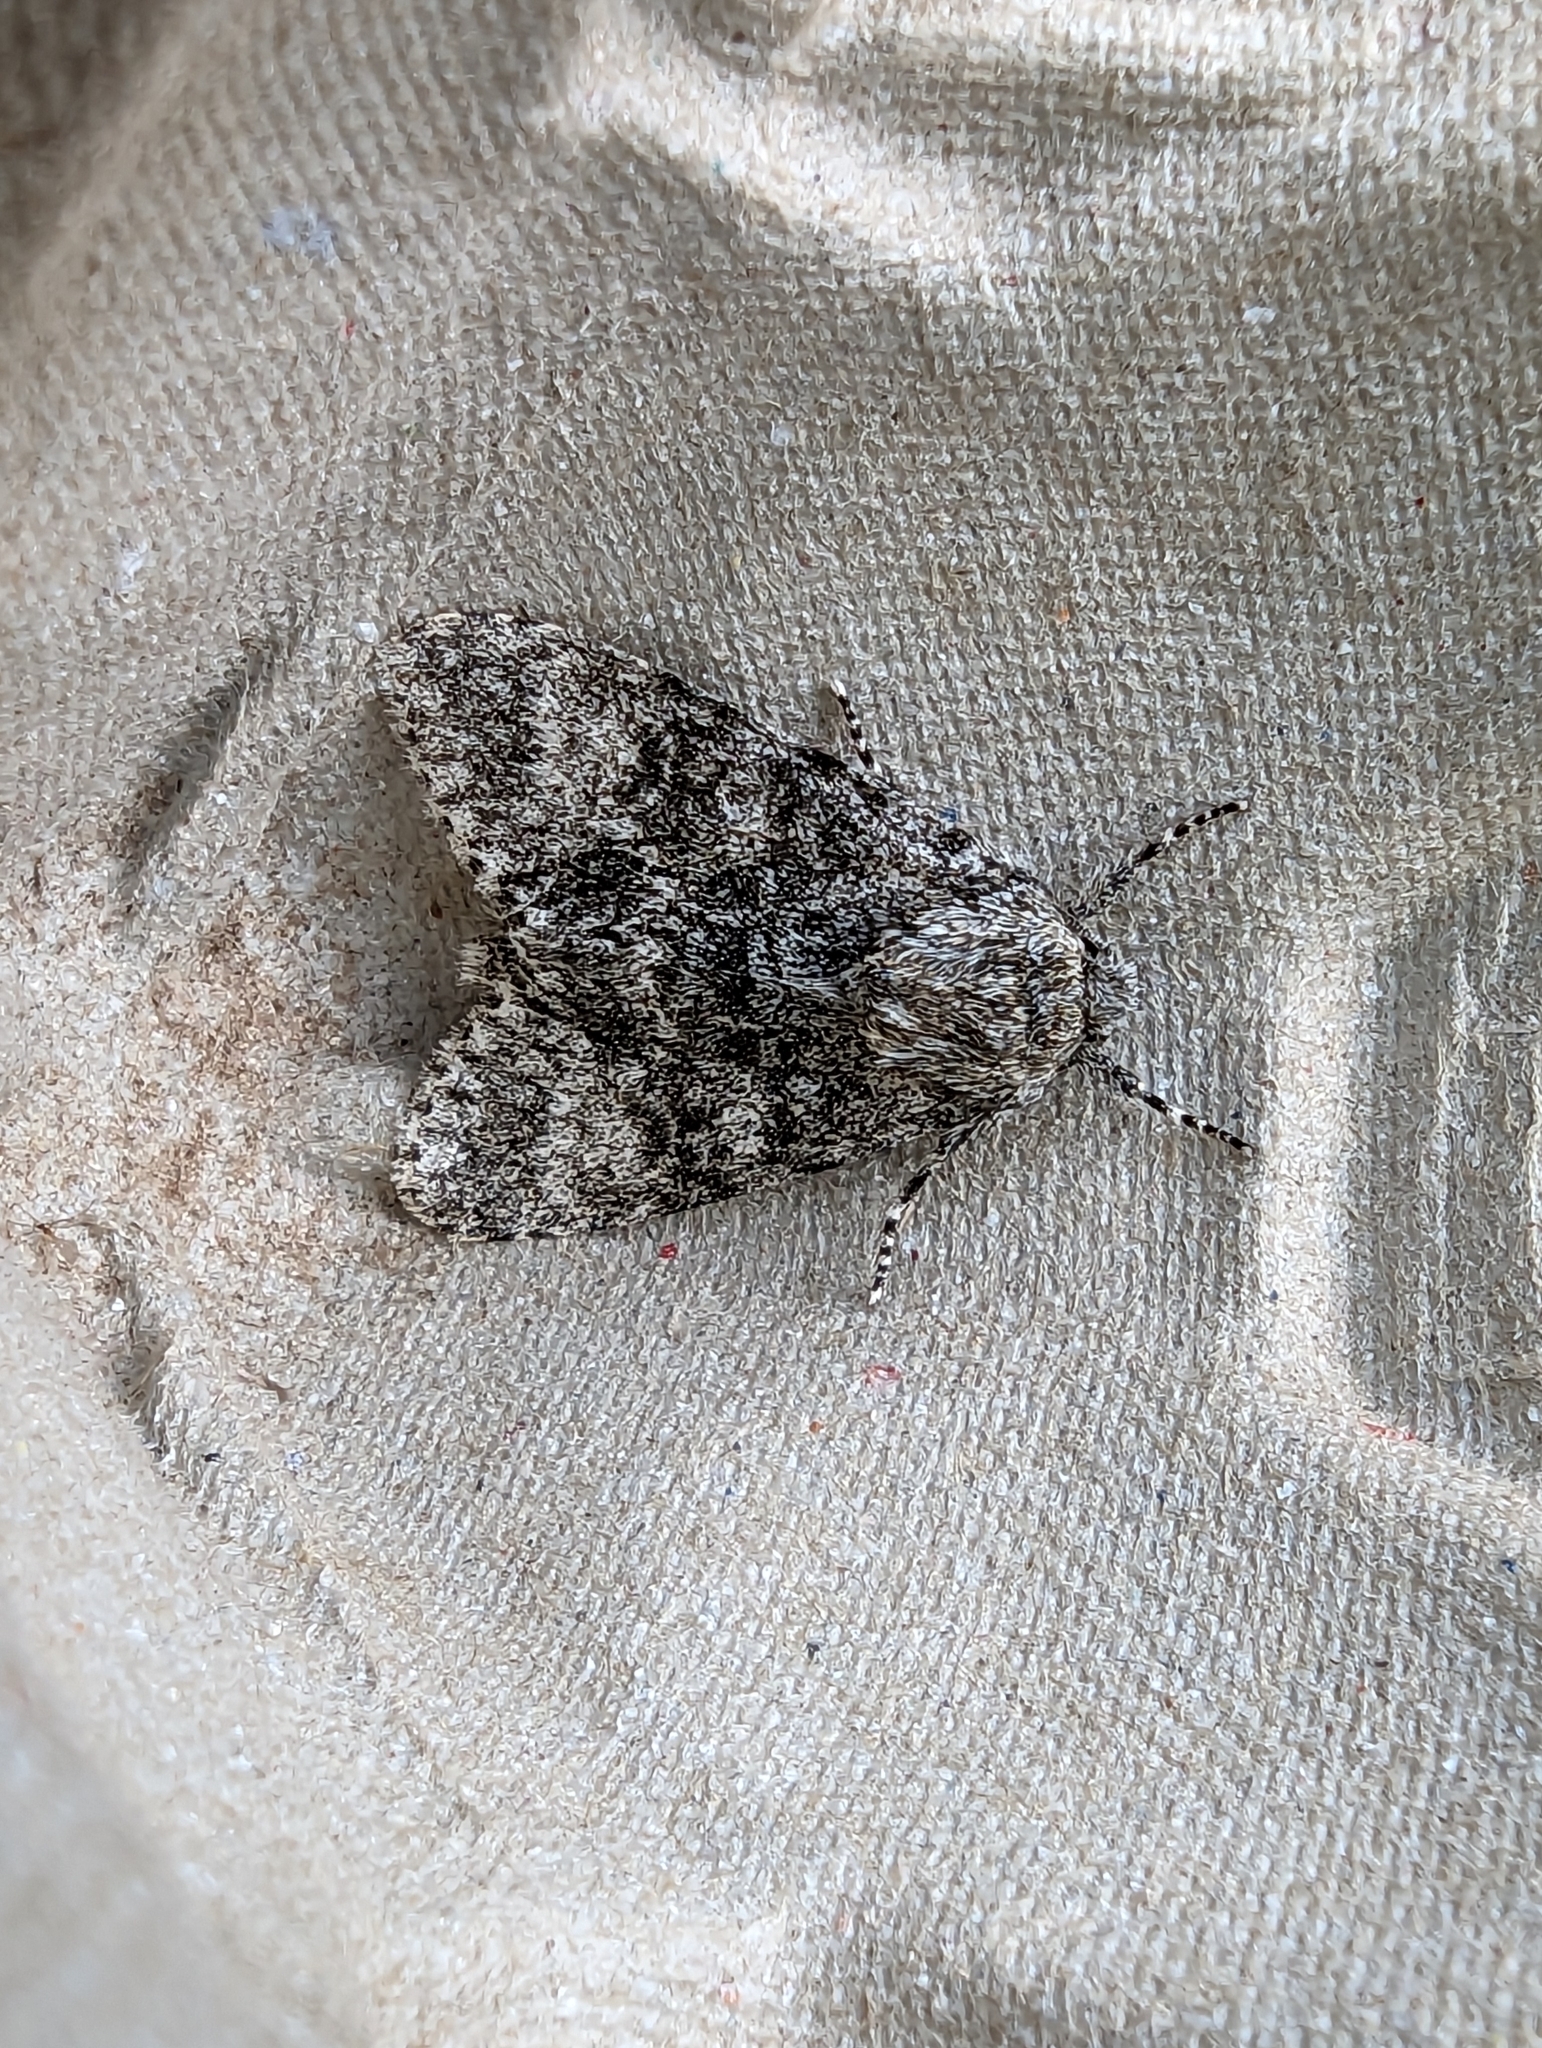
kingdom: Animalia
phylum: Arthropoda
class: Insecta
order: Lepidoptera
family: Noctuidae
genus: Acronicta
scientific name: Acronicta megacephala
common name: Poplar grey
